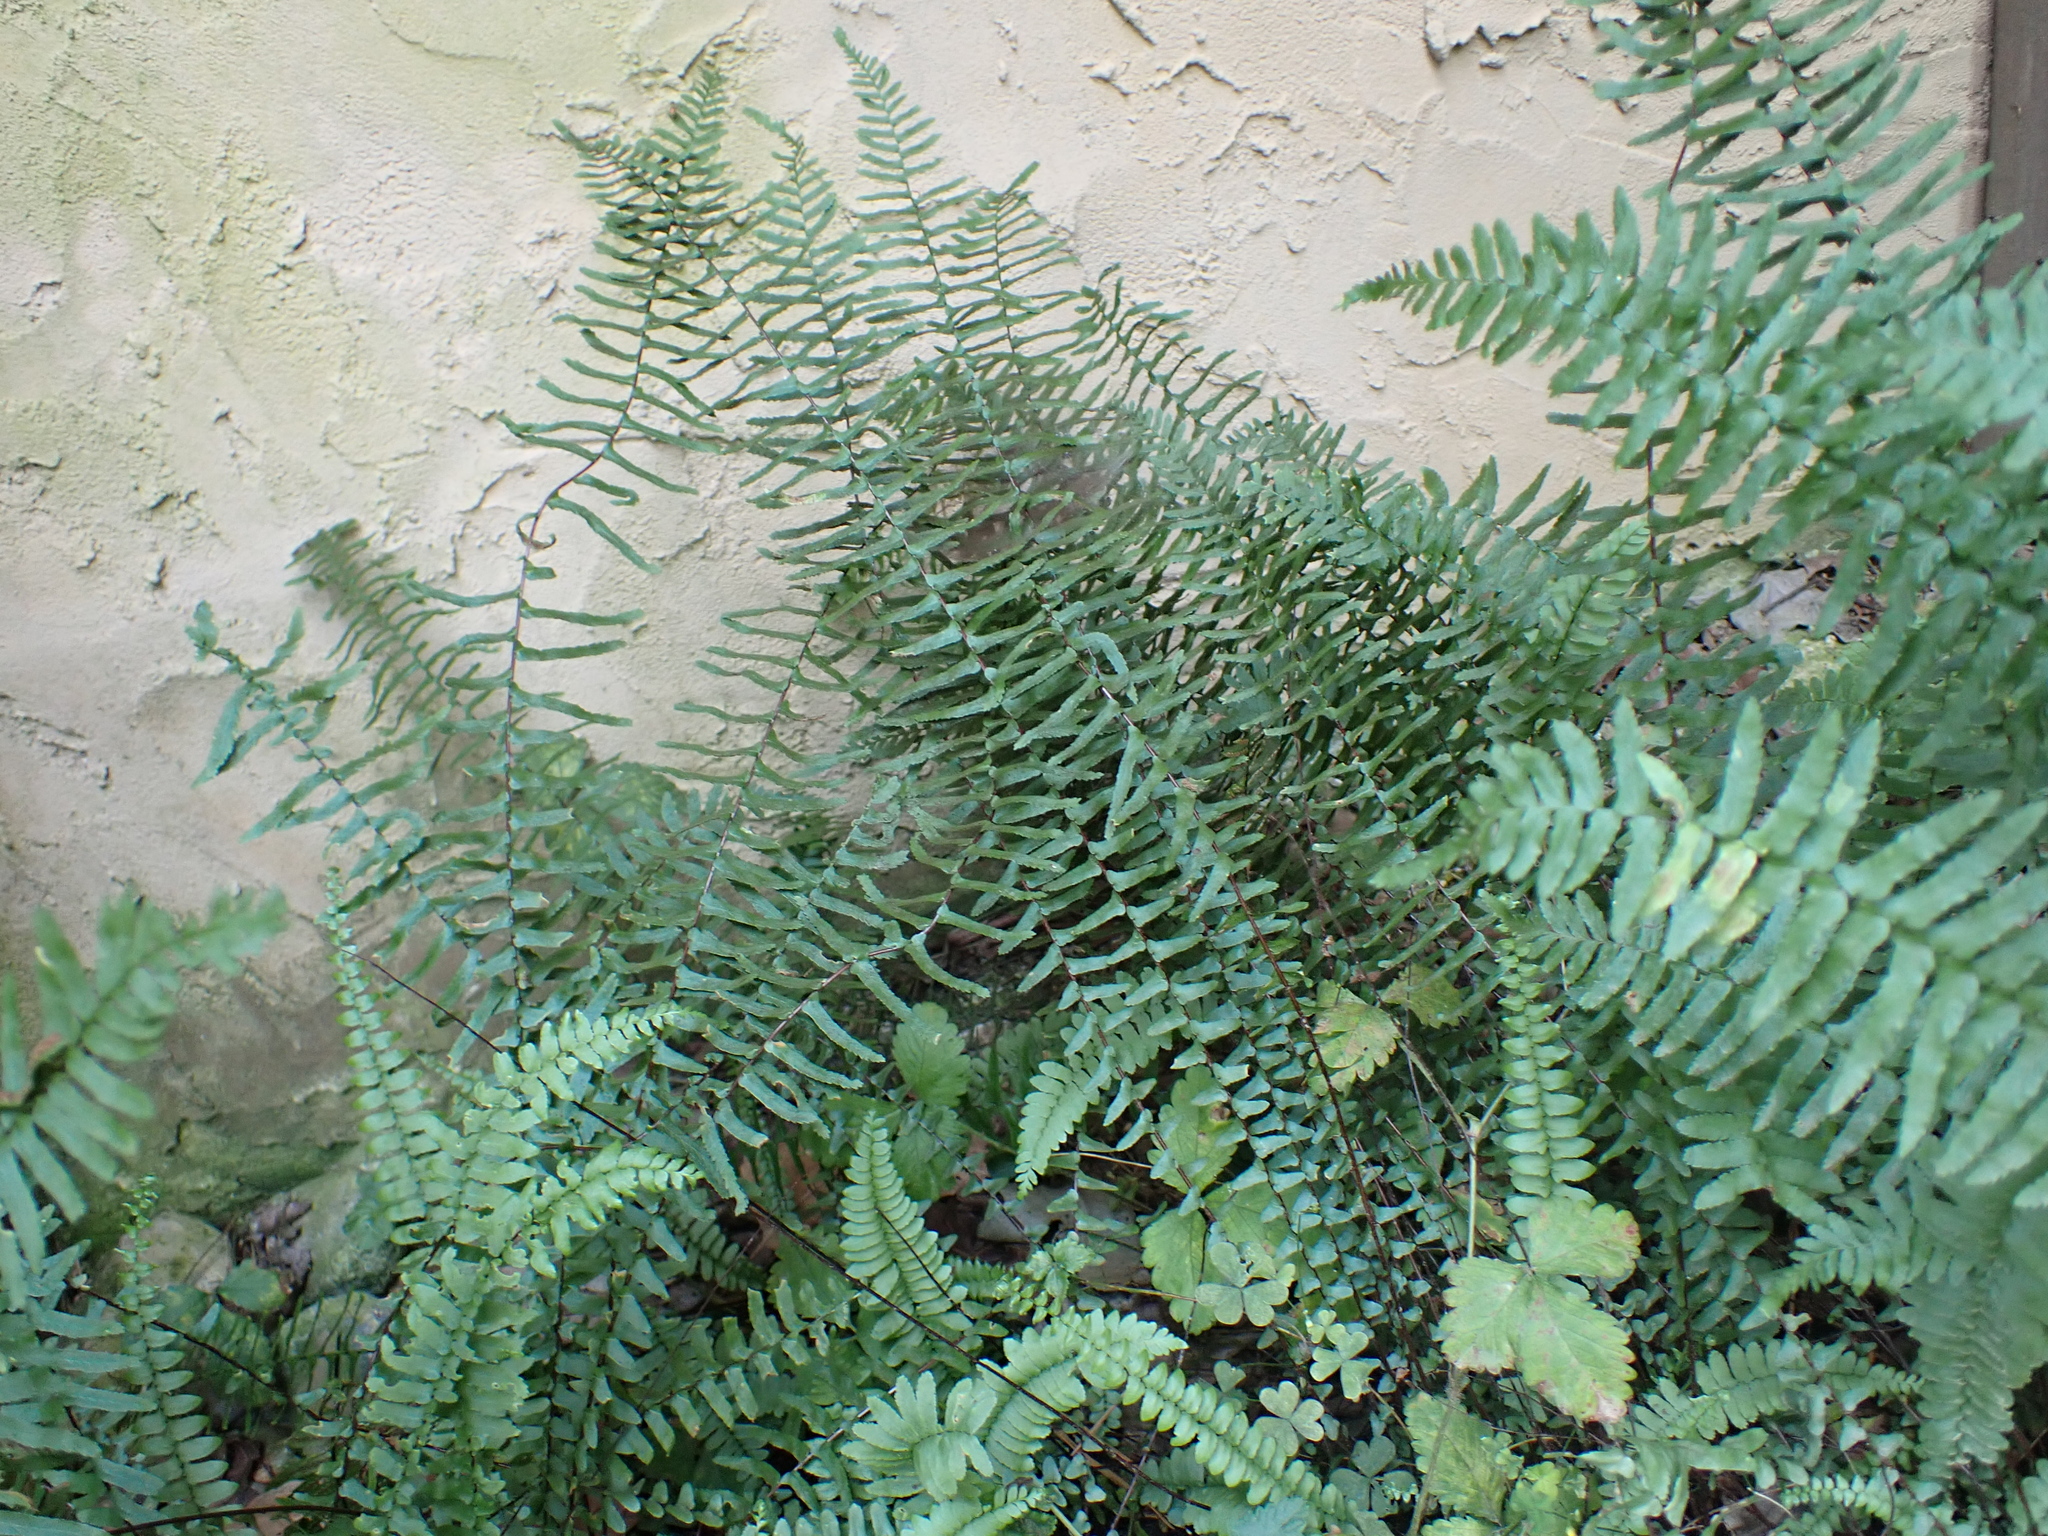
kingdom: Plantae
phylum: Tracheophyta
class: Polypodiopsida
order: Polypodiales
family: Aspleniaceae
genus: Asplenium
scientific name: Asplenium platyneuron
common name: Ebony spleenwort
